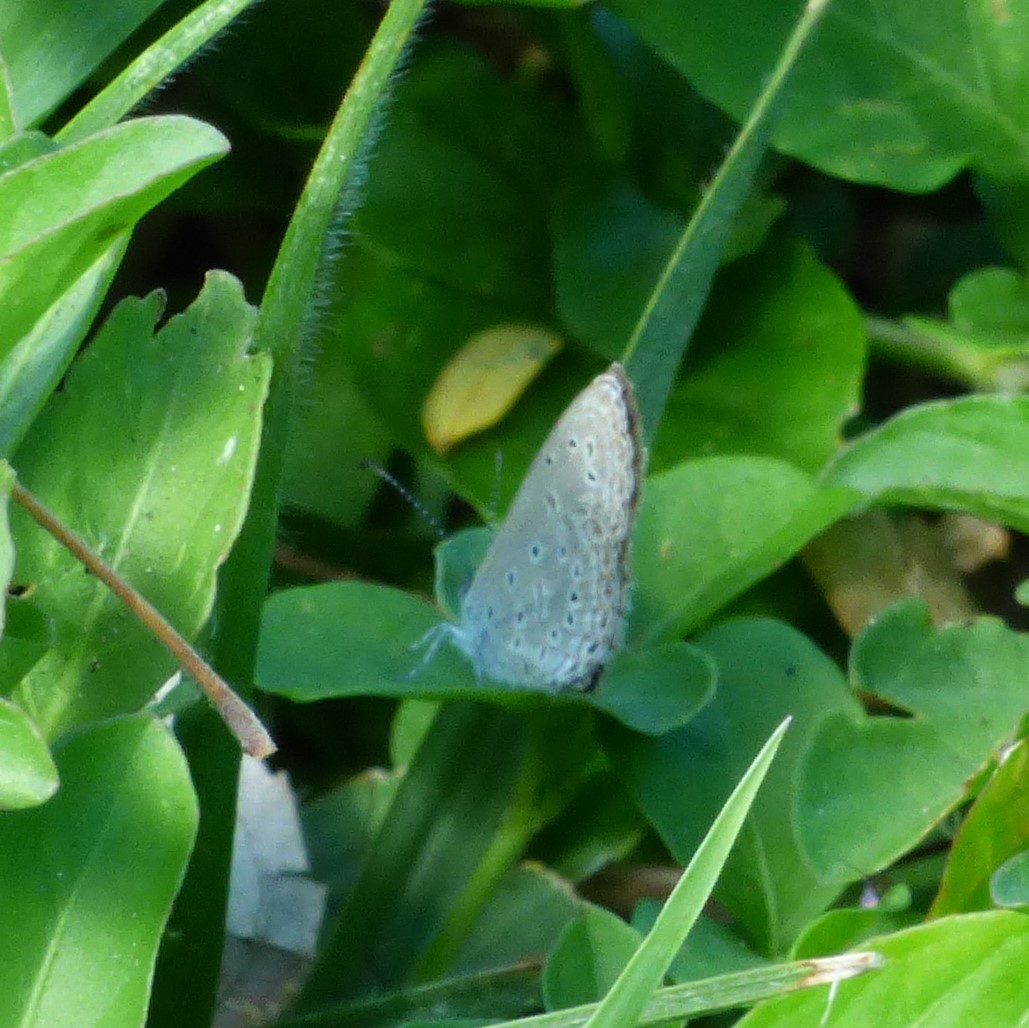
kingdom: Animalia
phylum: Arthropoda
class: Insecta
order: Lepidoptera
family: Lycaenidae
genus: Zizula
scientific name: Zizula hylax
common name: Gaika blue
